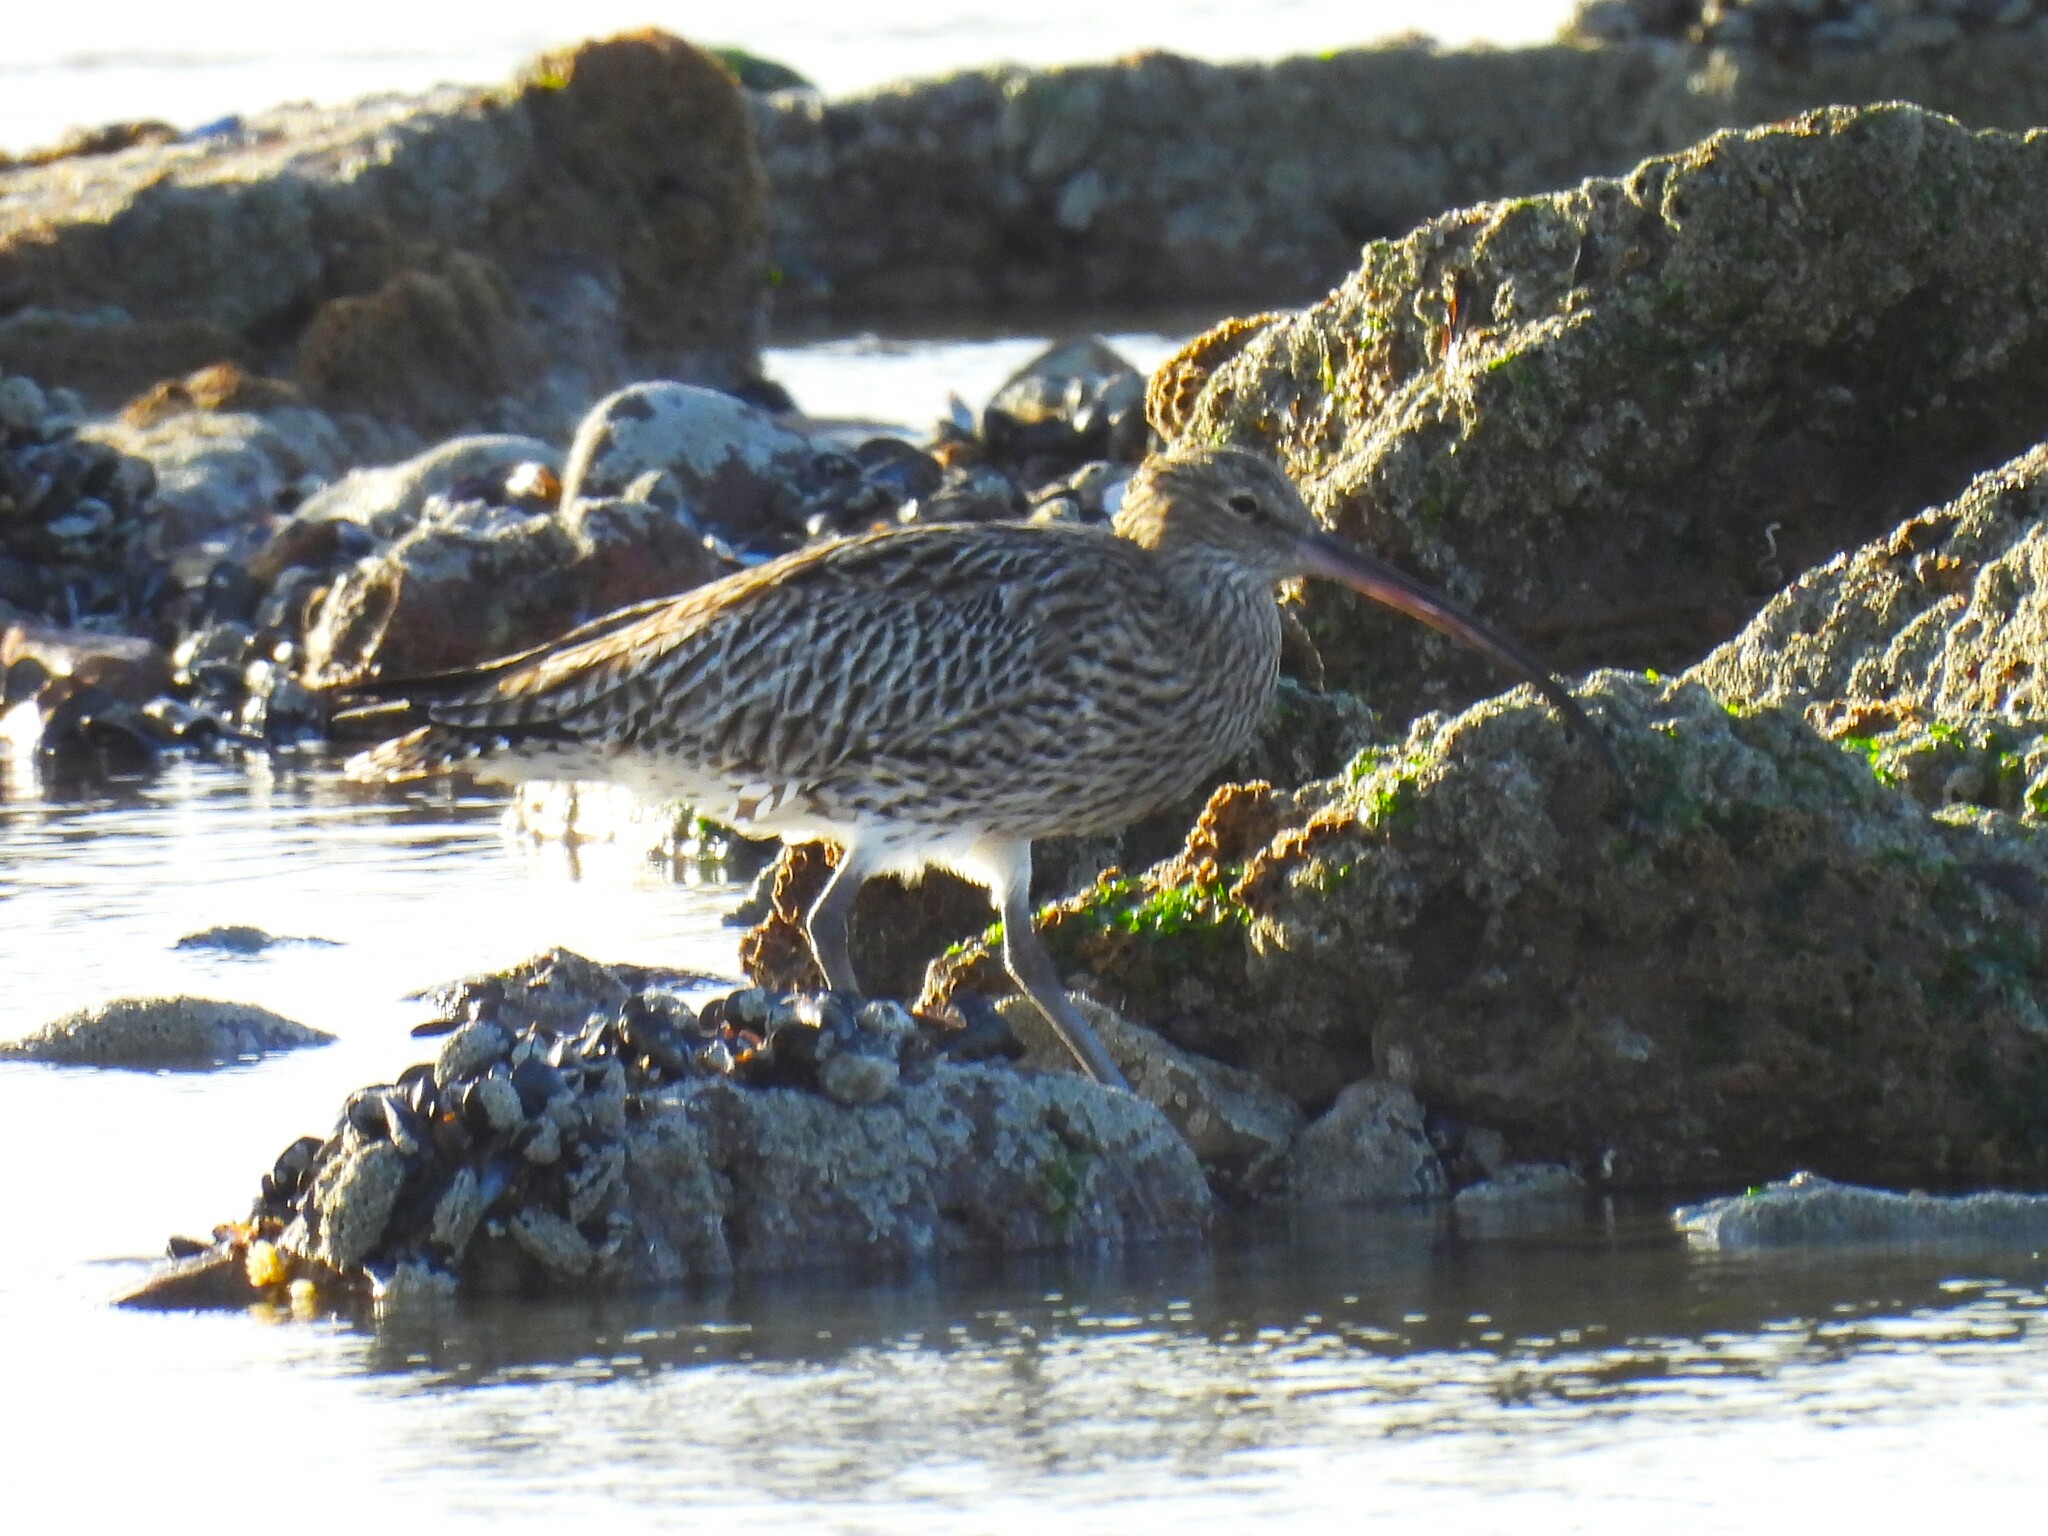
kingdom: Animalia
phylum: Chordata
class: Aves
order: Charadriiformes
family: Scolopacidae
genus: Numenius
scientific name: Numenius arquata
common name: Eurasian curlew
